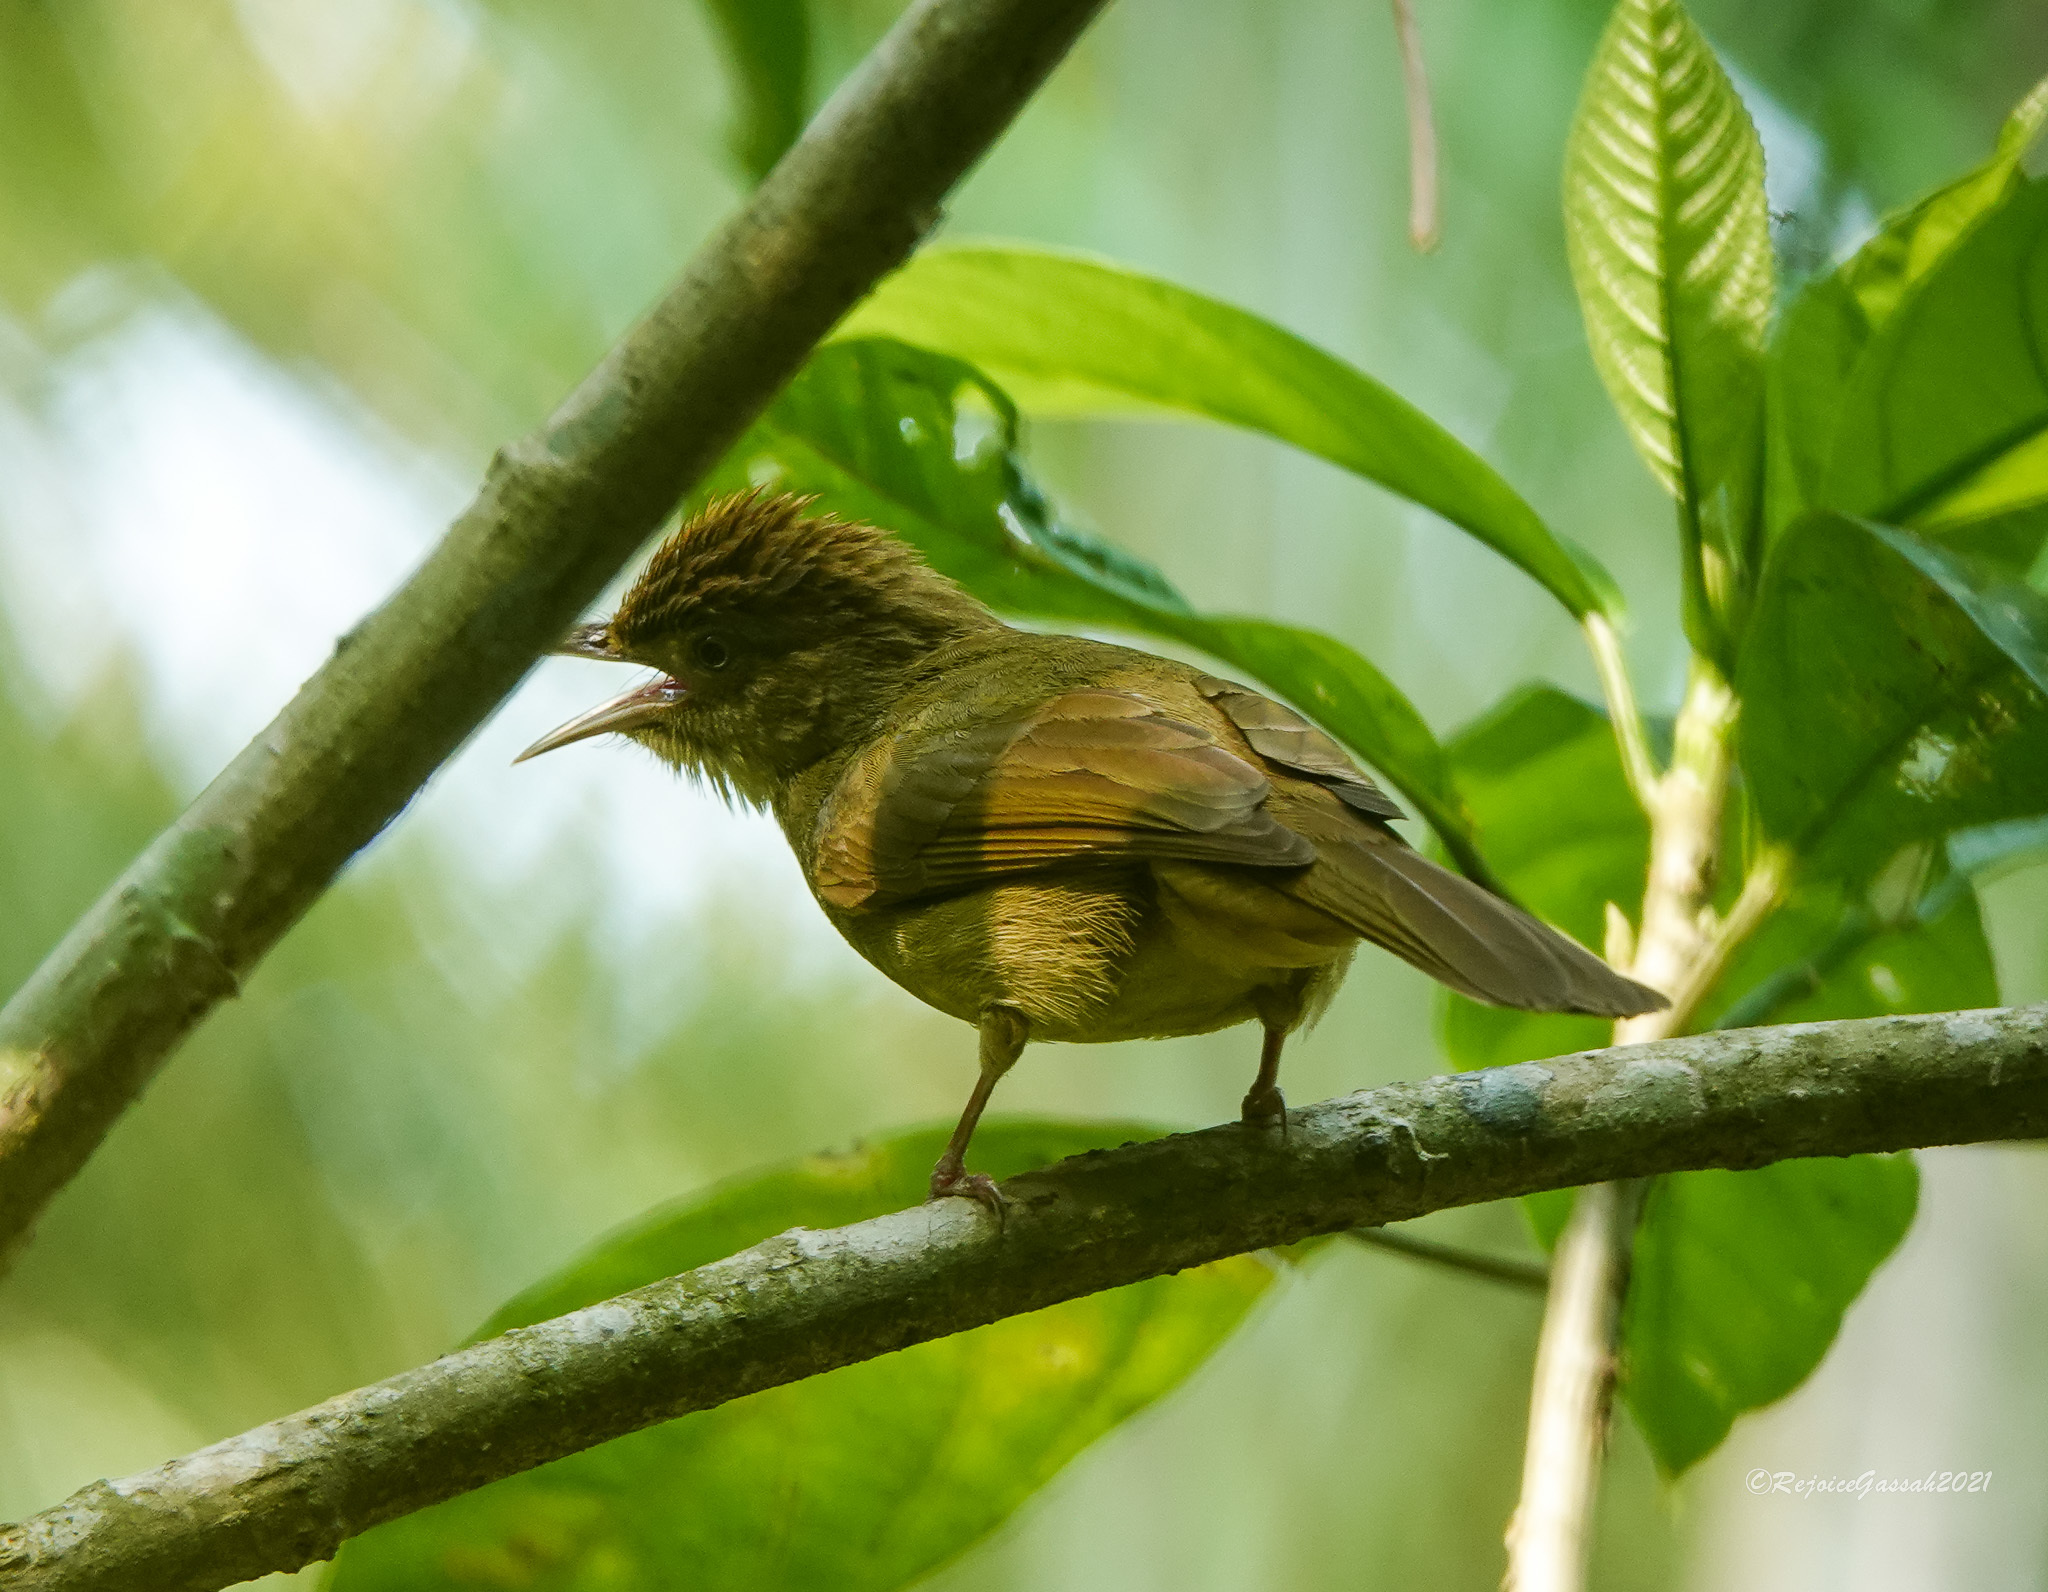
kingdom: Animalia
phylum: Chordata
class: Aves
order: Passeriformes
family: Pycnonotidae
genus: Iole
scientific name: Iole virescens
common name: Olive bulbul
